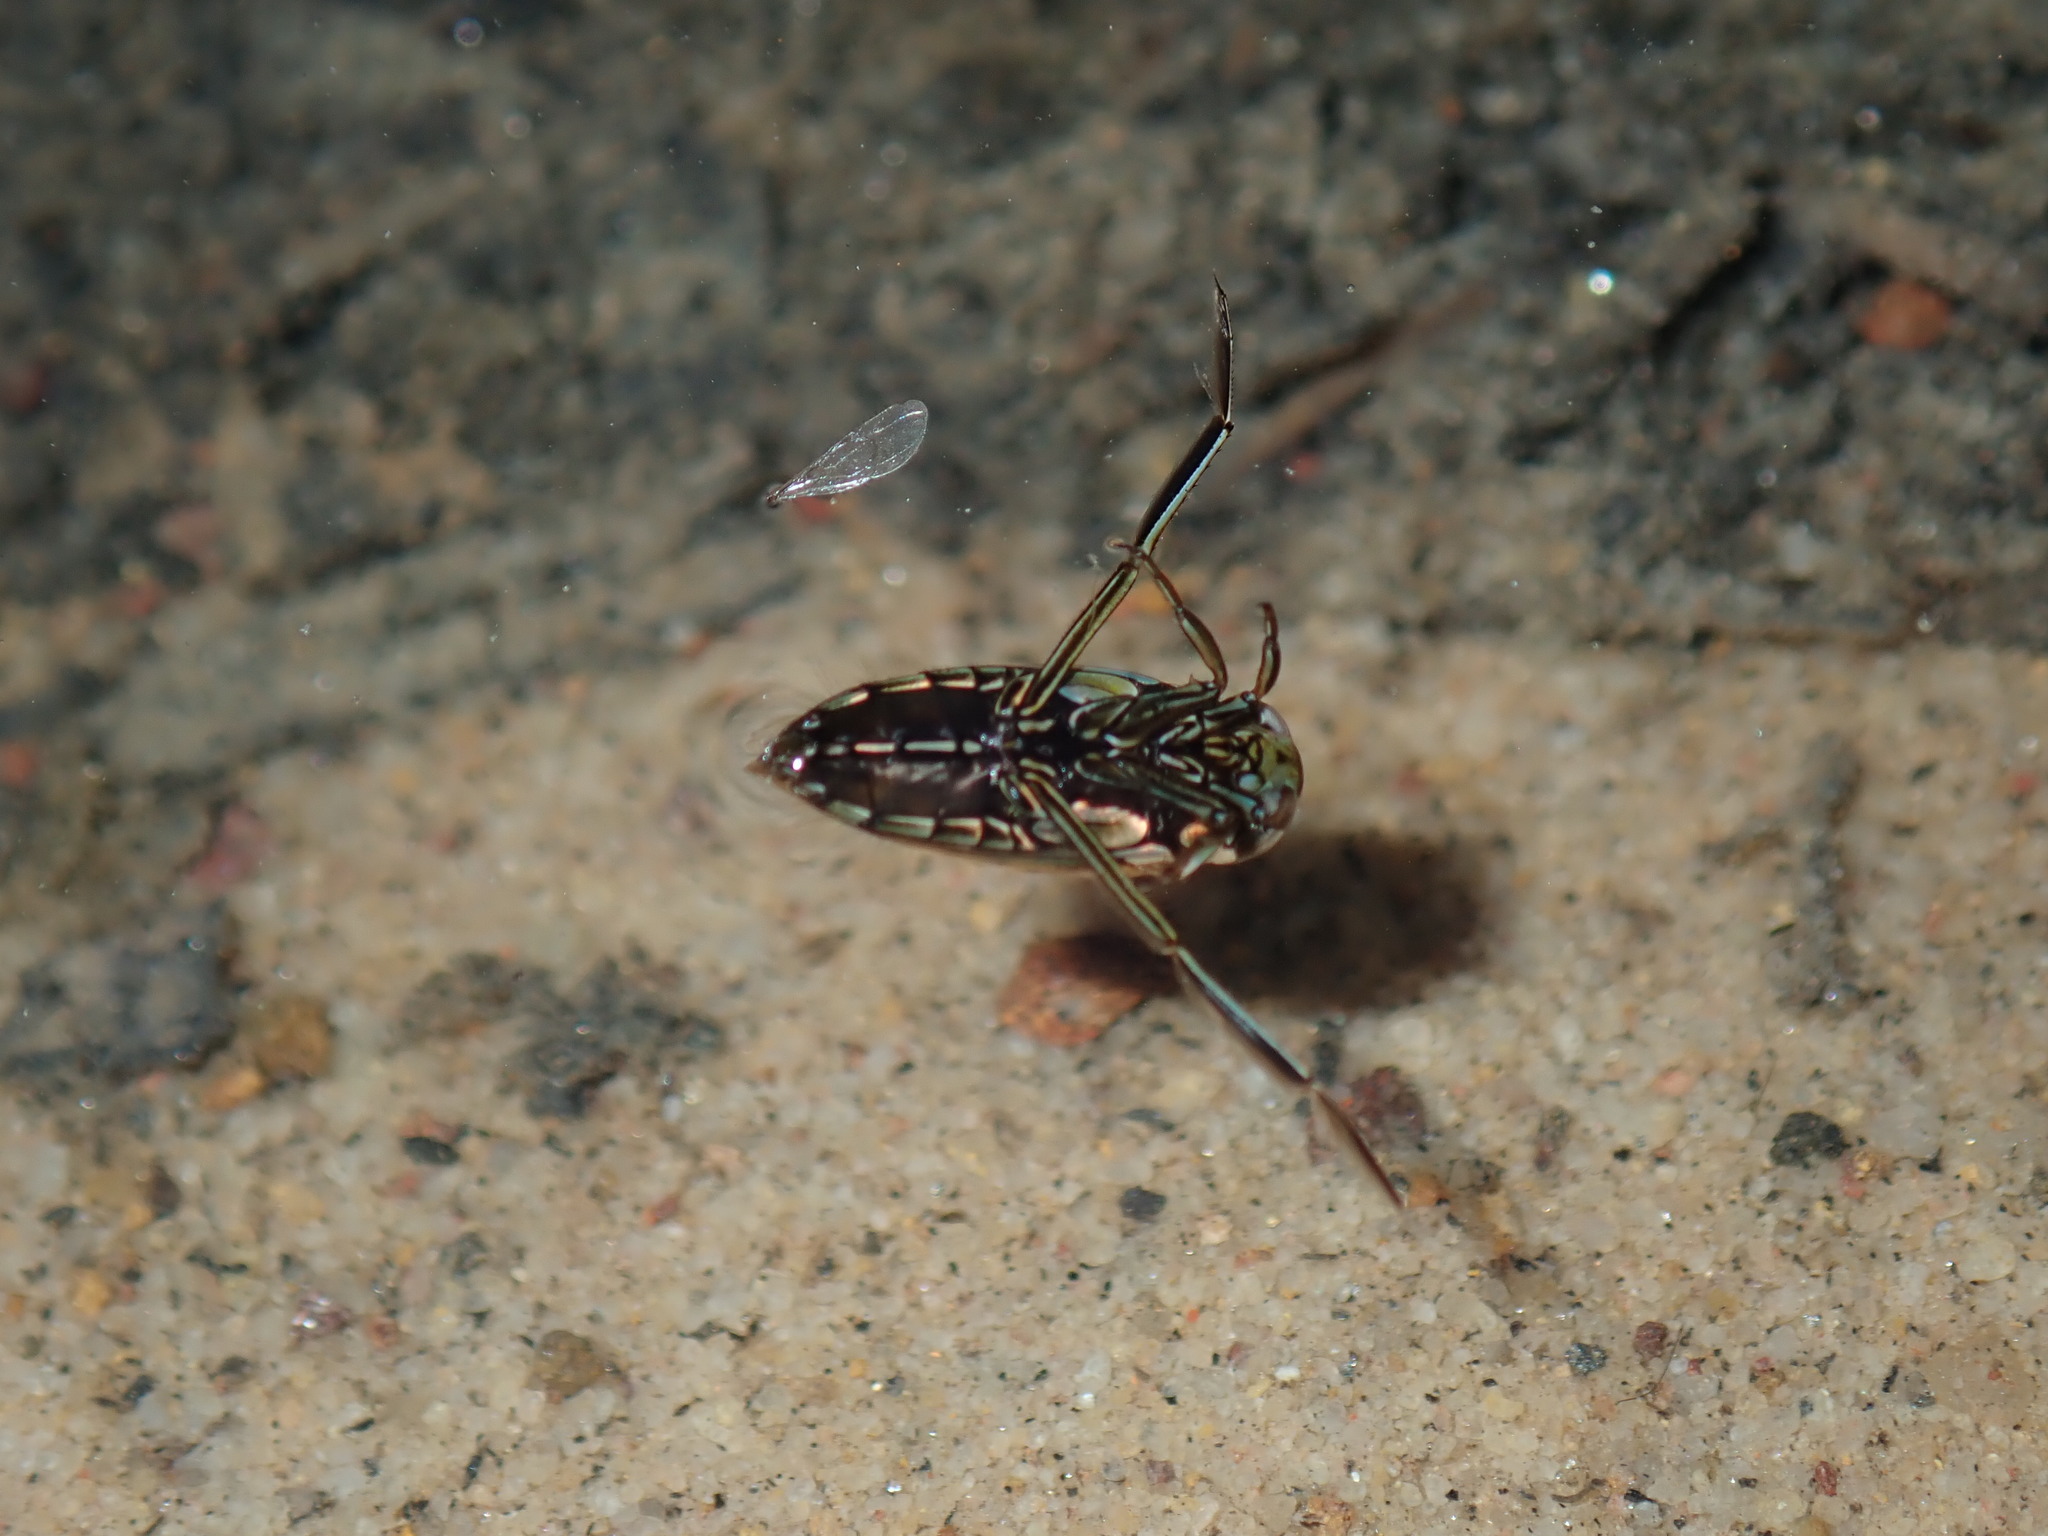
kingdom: Animalia
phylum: Arthropoda
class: Insecta
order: Hemiptera
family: Notonectidae
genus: Enithares
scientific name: Enithares
